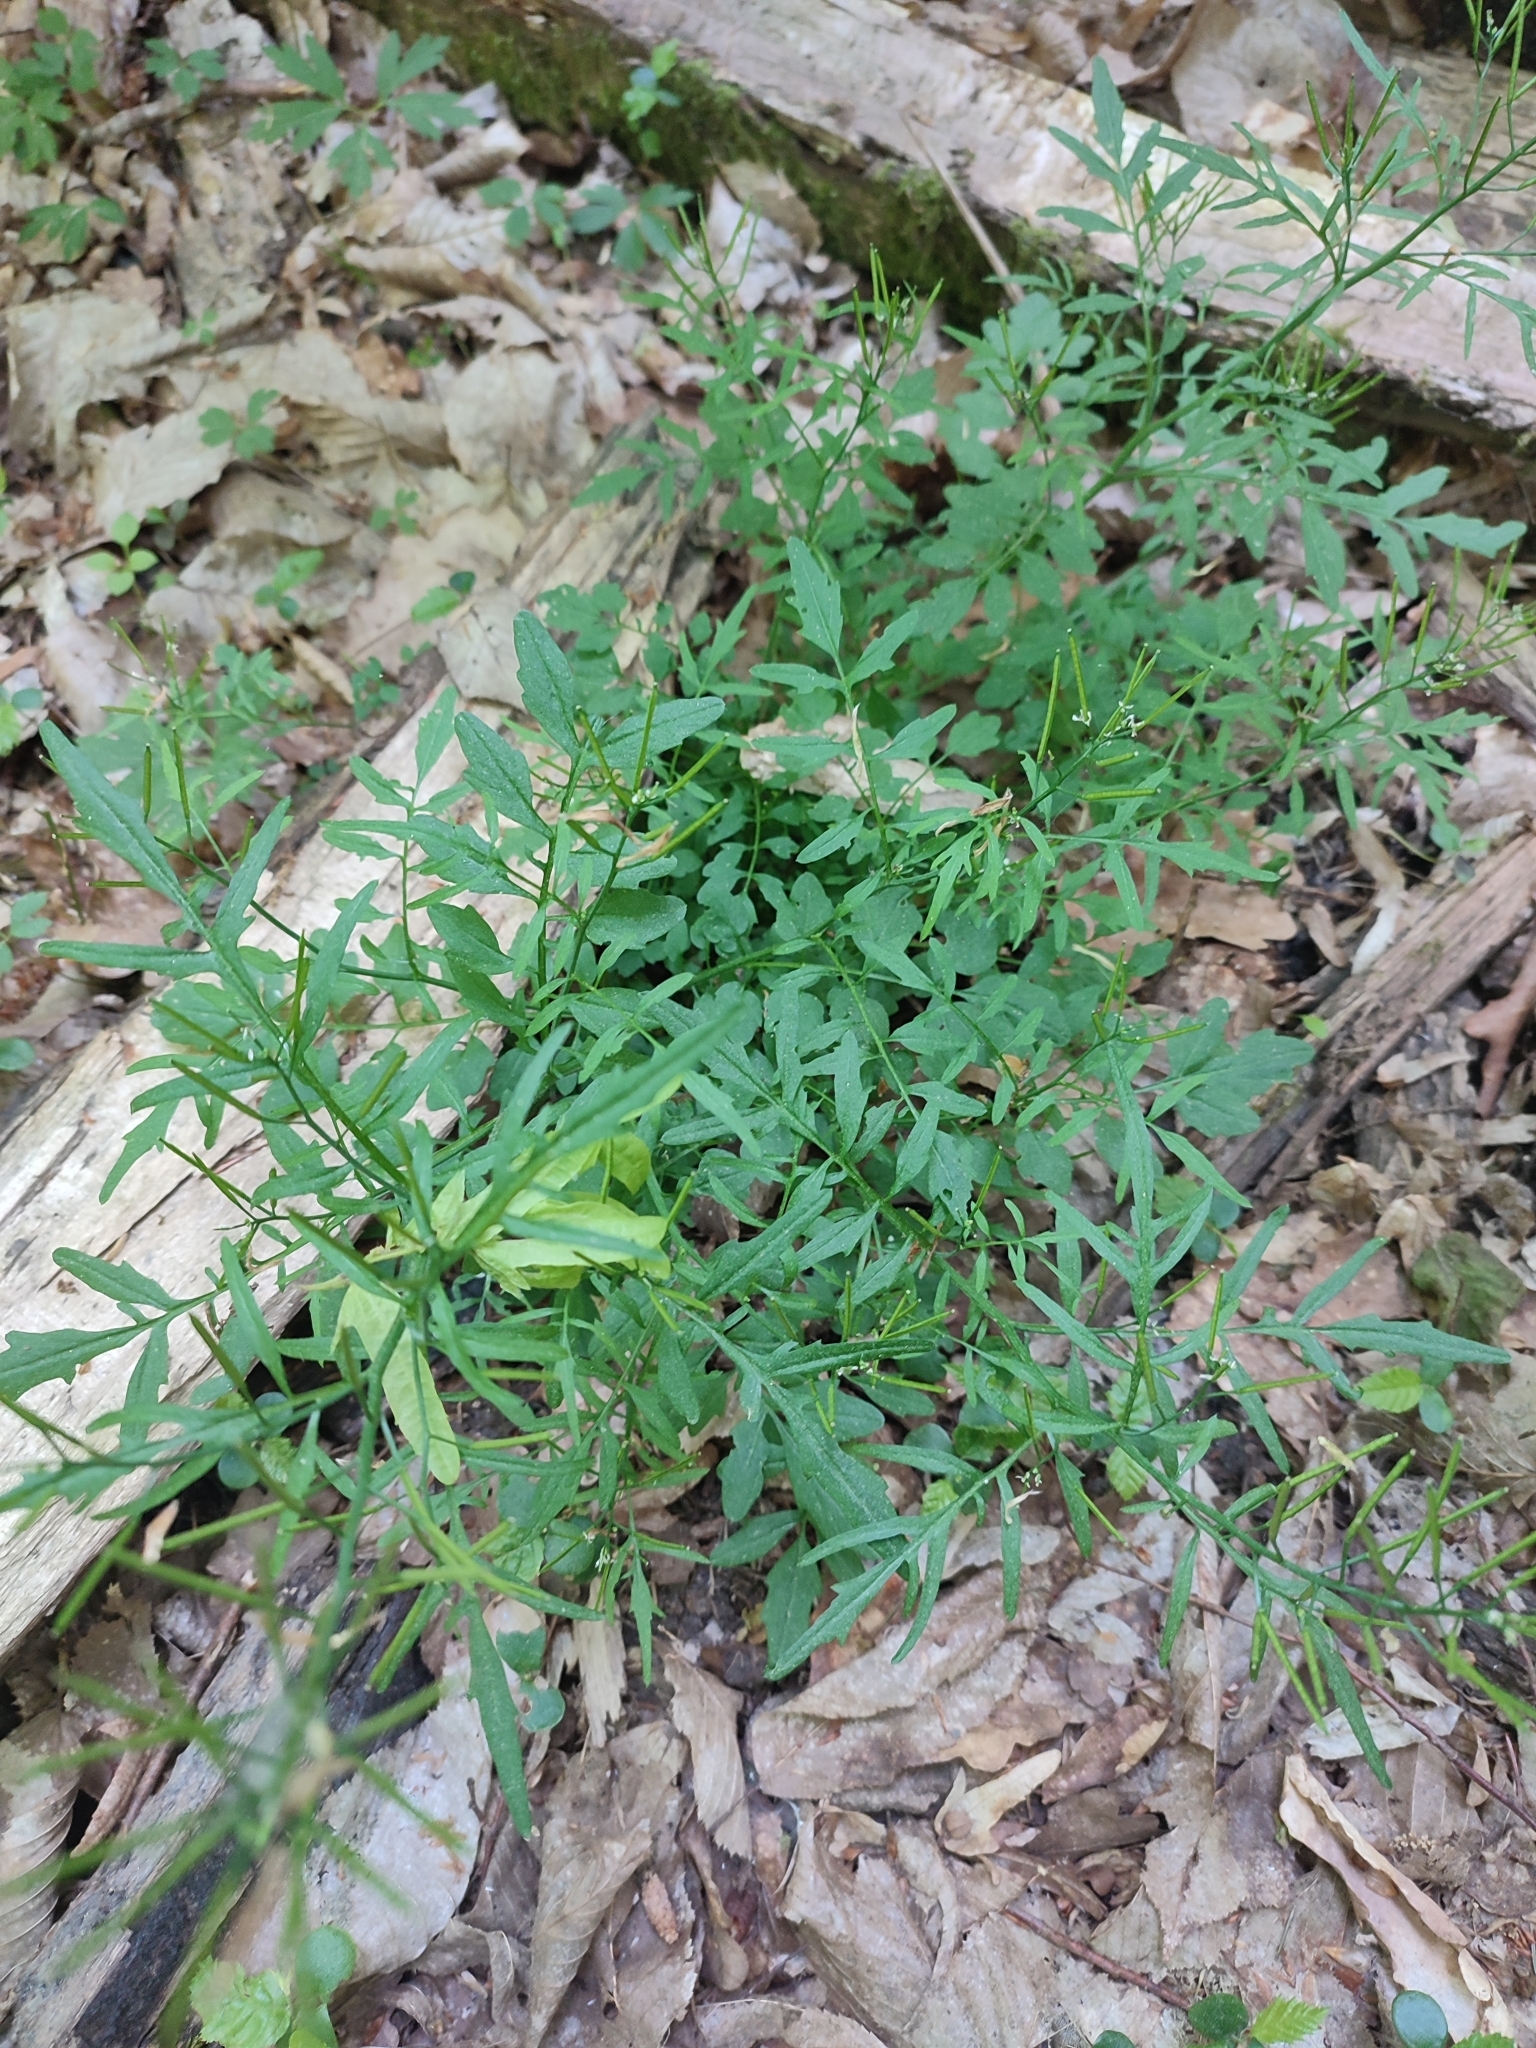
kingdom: Plantae
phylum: Tracheophyta
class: Magnoliopsida
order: Brassicales
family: Brassicaceae
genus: Cardamine
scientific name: Cardamine flexuosa
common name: Woodland bittercress
